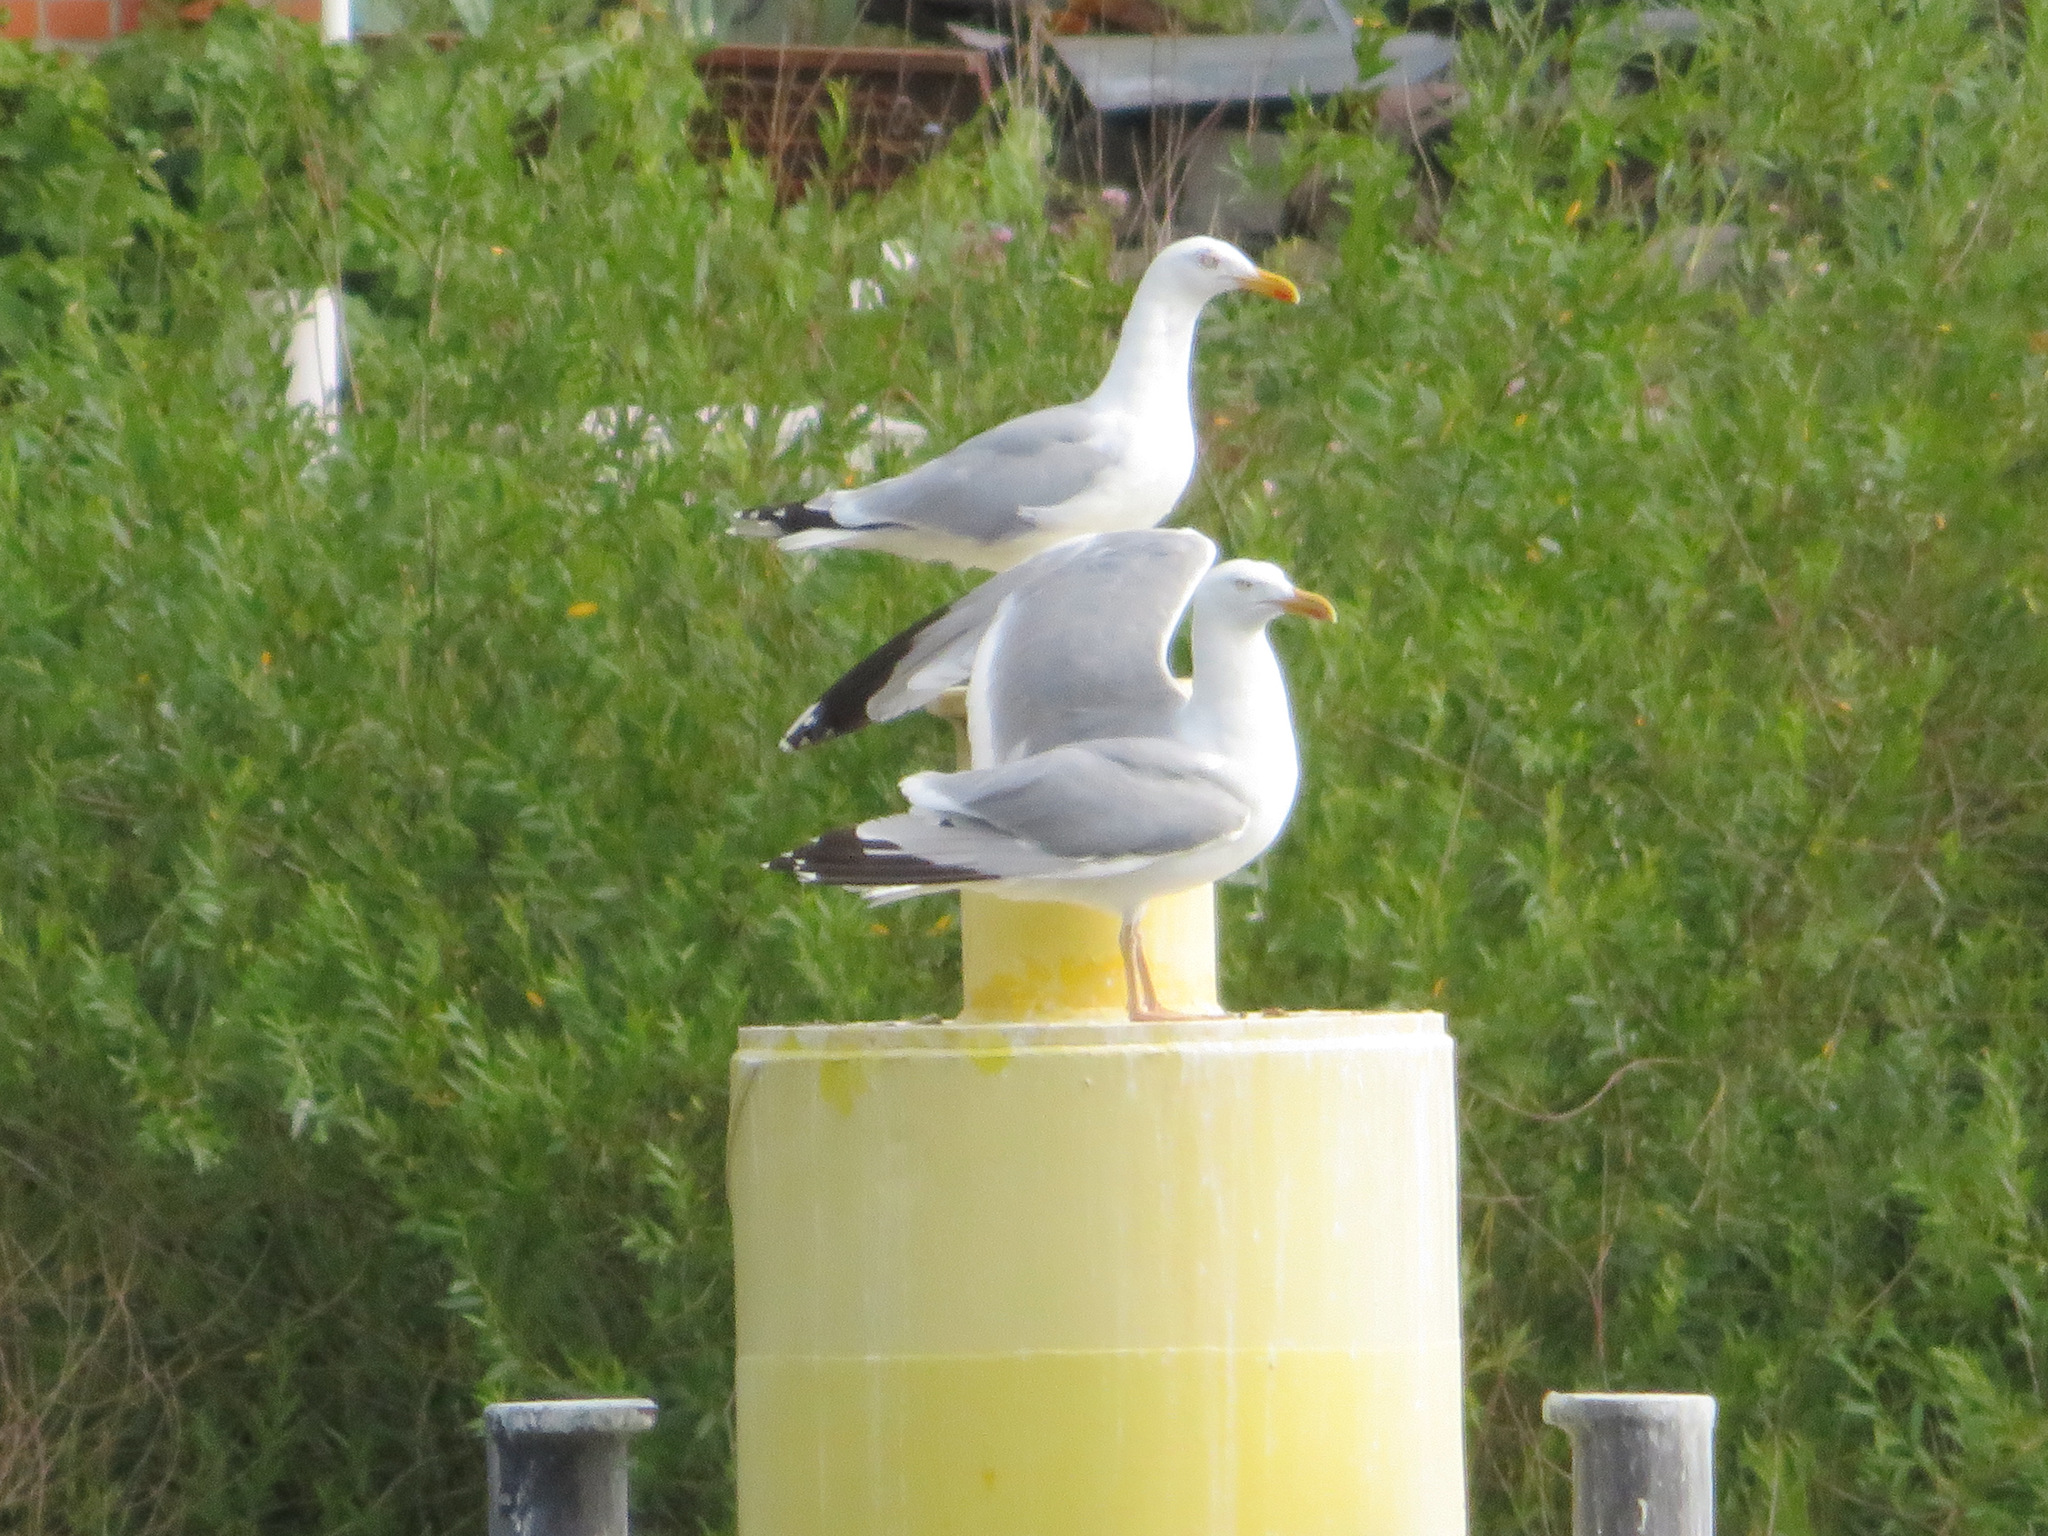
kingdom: Animalia
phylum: Chordata
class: Aves
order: Charadriiformes
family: Laridae
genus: Larus
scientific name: Larus argentatus
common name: Herring gull
